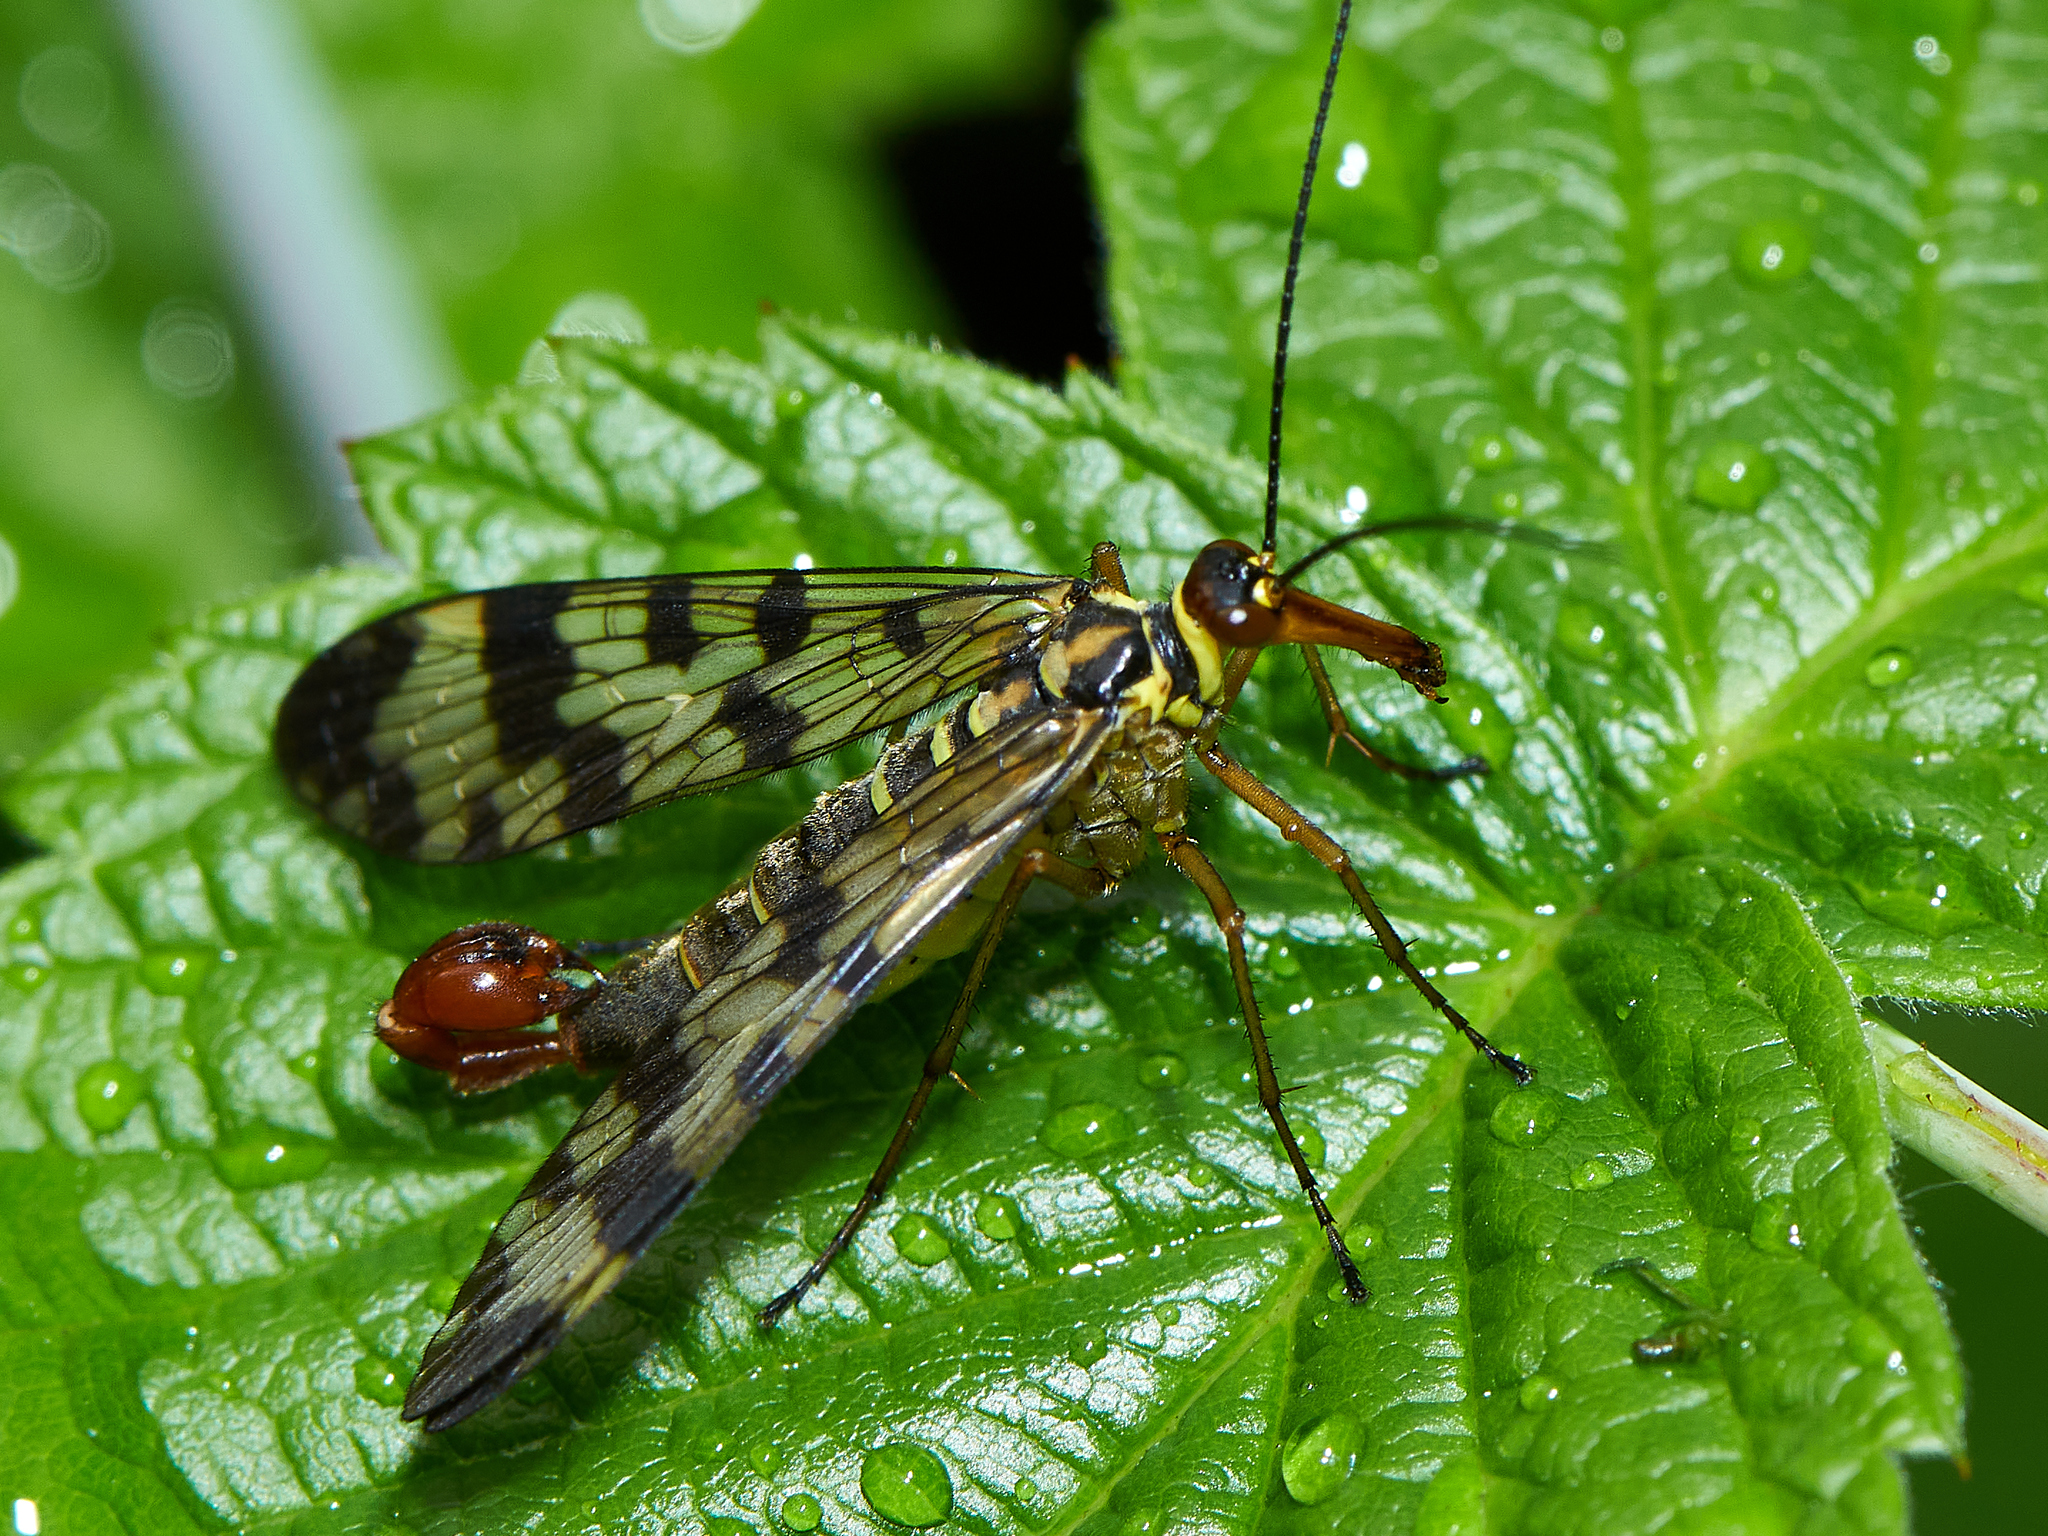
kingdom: Animalia
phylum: Arthropoda
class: Insecta
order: Mecoptera
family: Panorpidae
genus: Panorpa
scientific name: Panorpa communis
